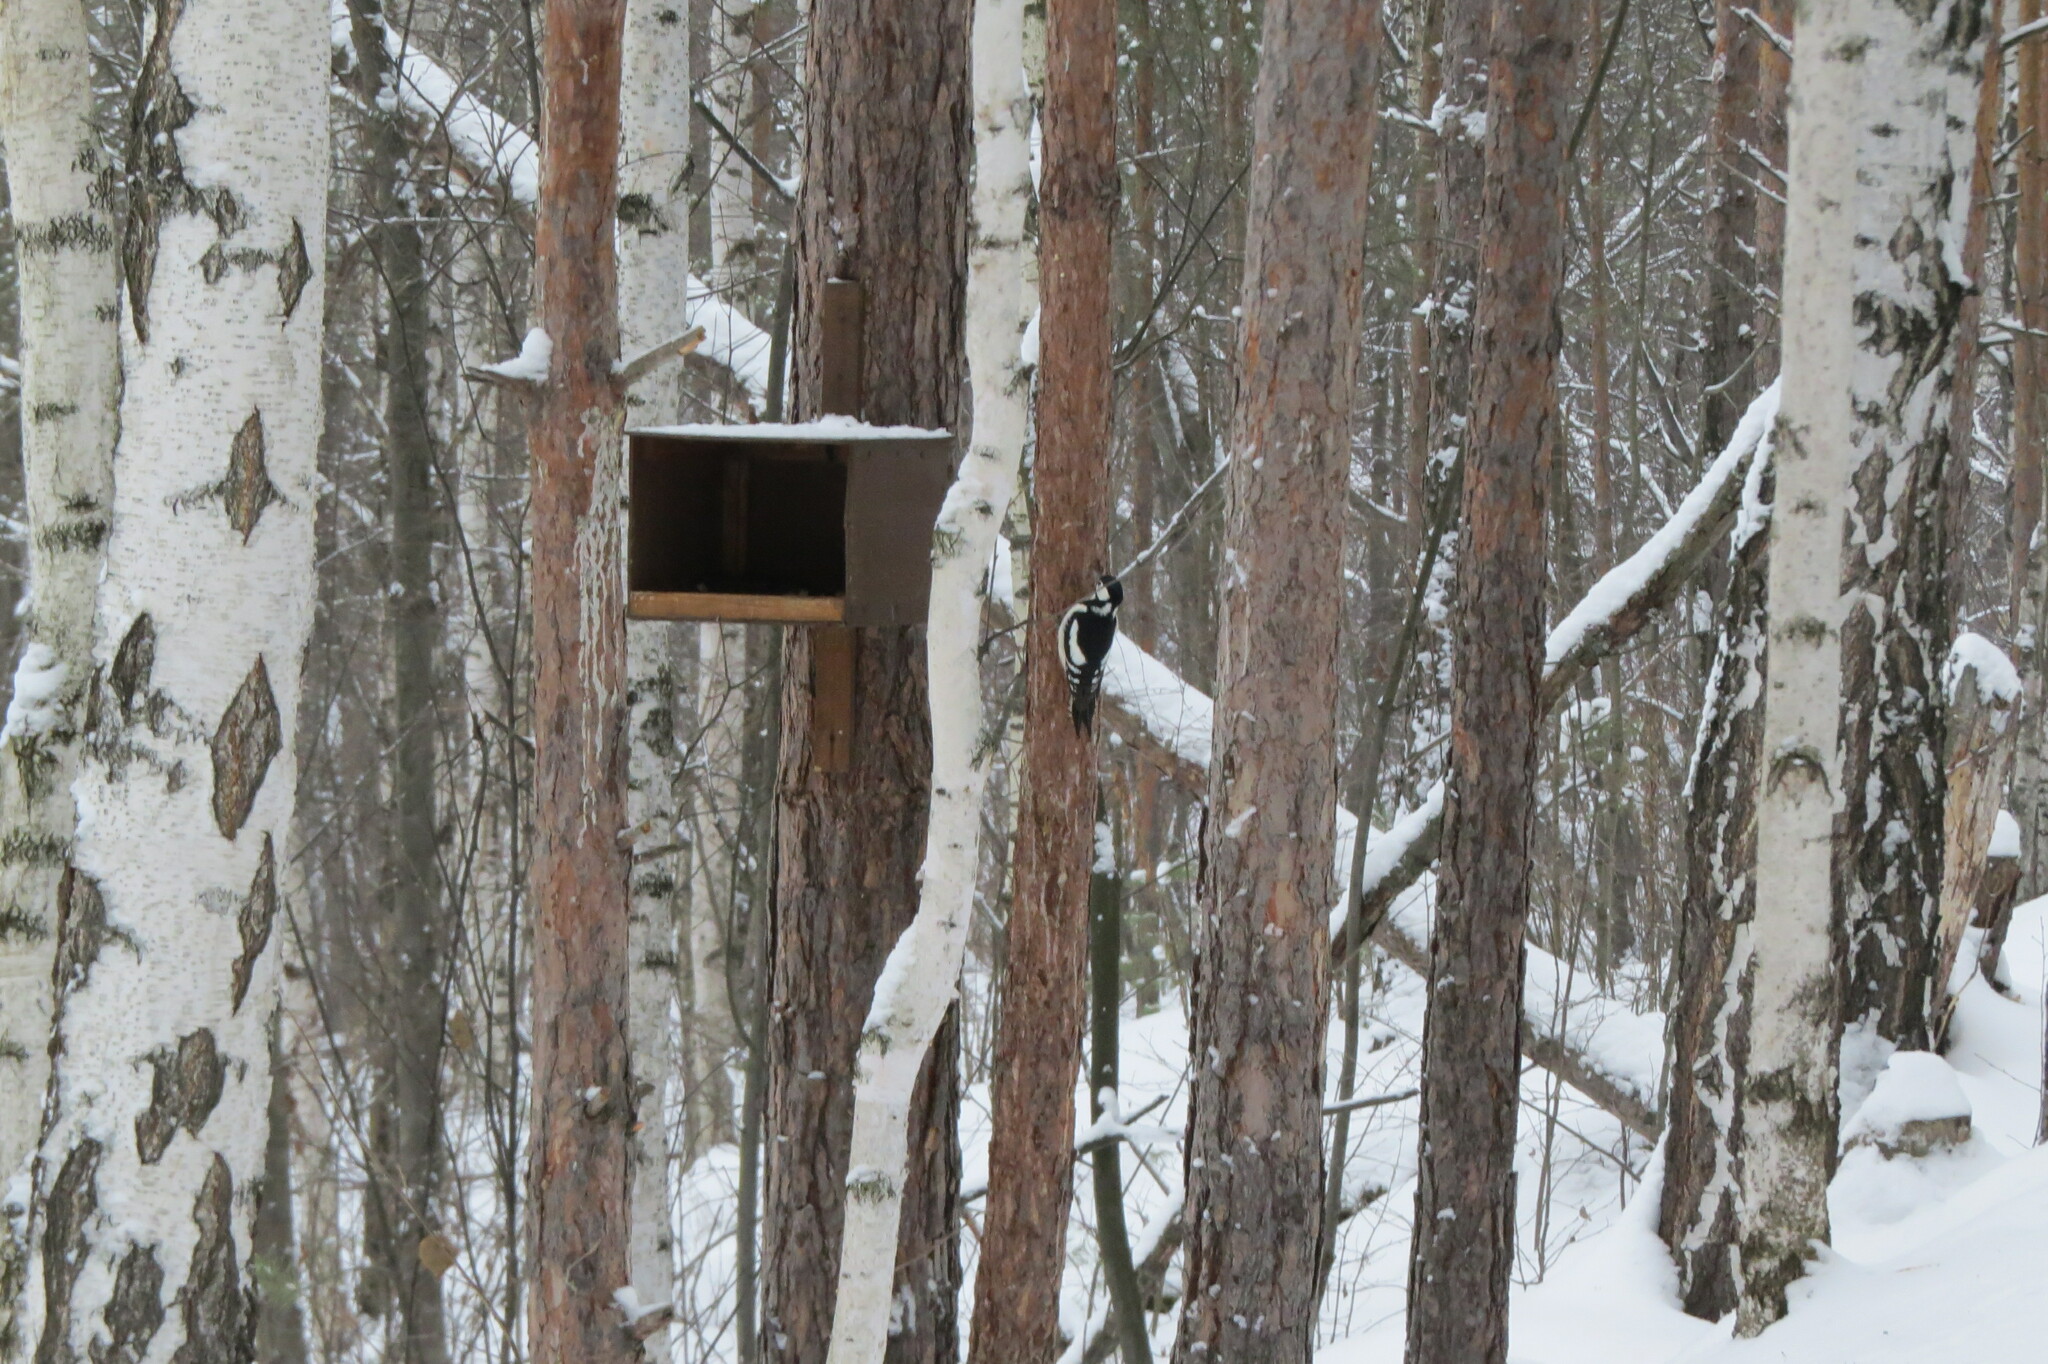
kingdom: Animalia
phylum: Chordata
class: Aves
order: Piciformes
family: Picidae
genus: Dendrocopos
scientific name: Dendrocopos major
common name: Great spotted woodpecker
